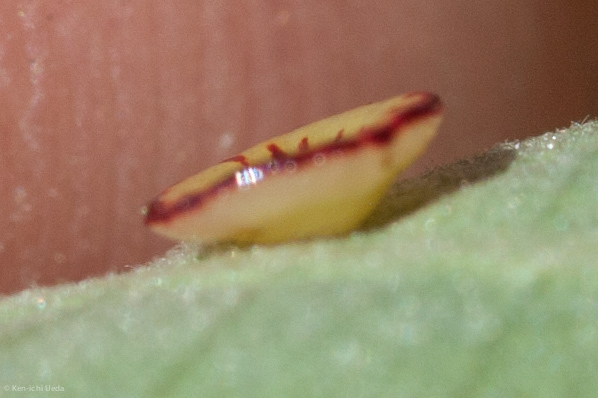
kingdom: Animalia
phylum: Arthropoda
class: Insecta
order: Hymenoptera
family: Cynipidae
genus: Andricus
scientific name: Andricus
